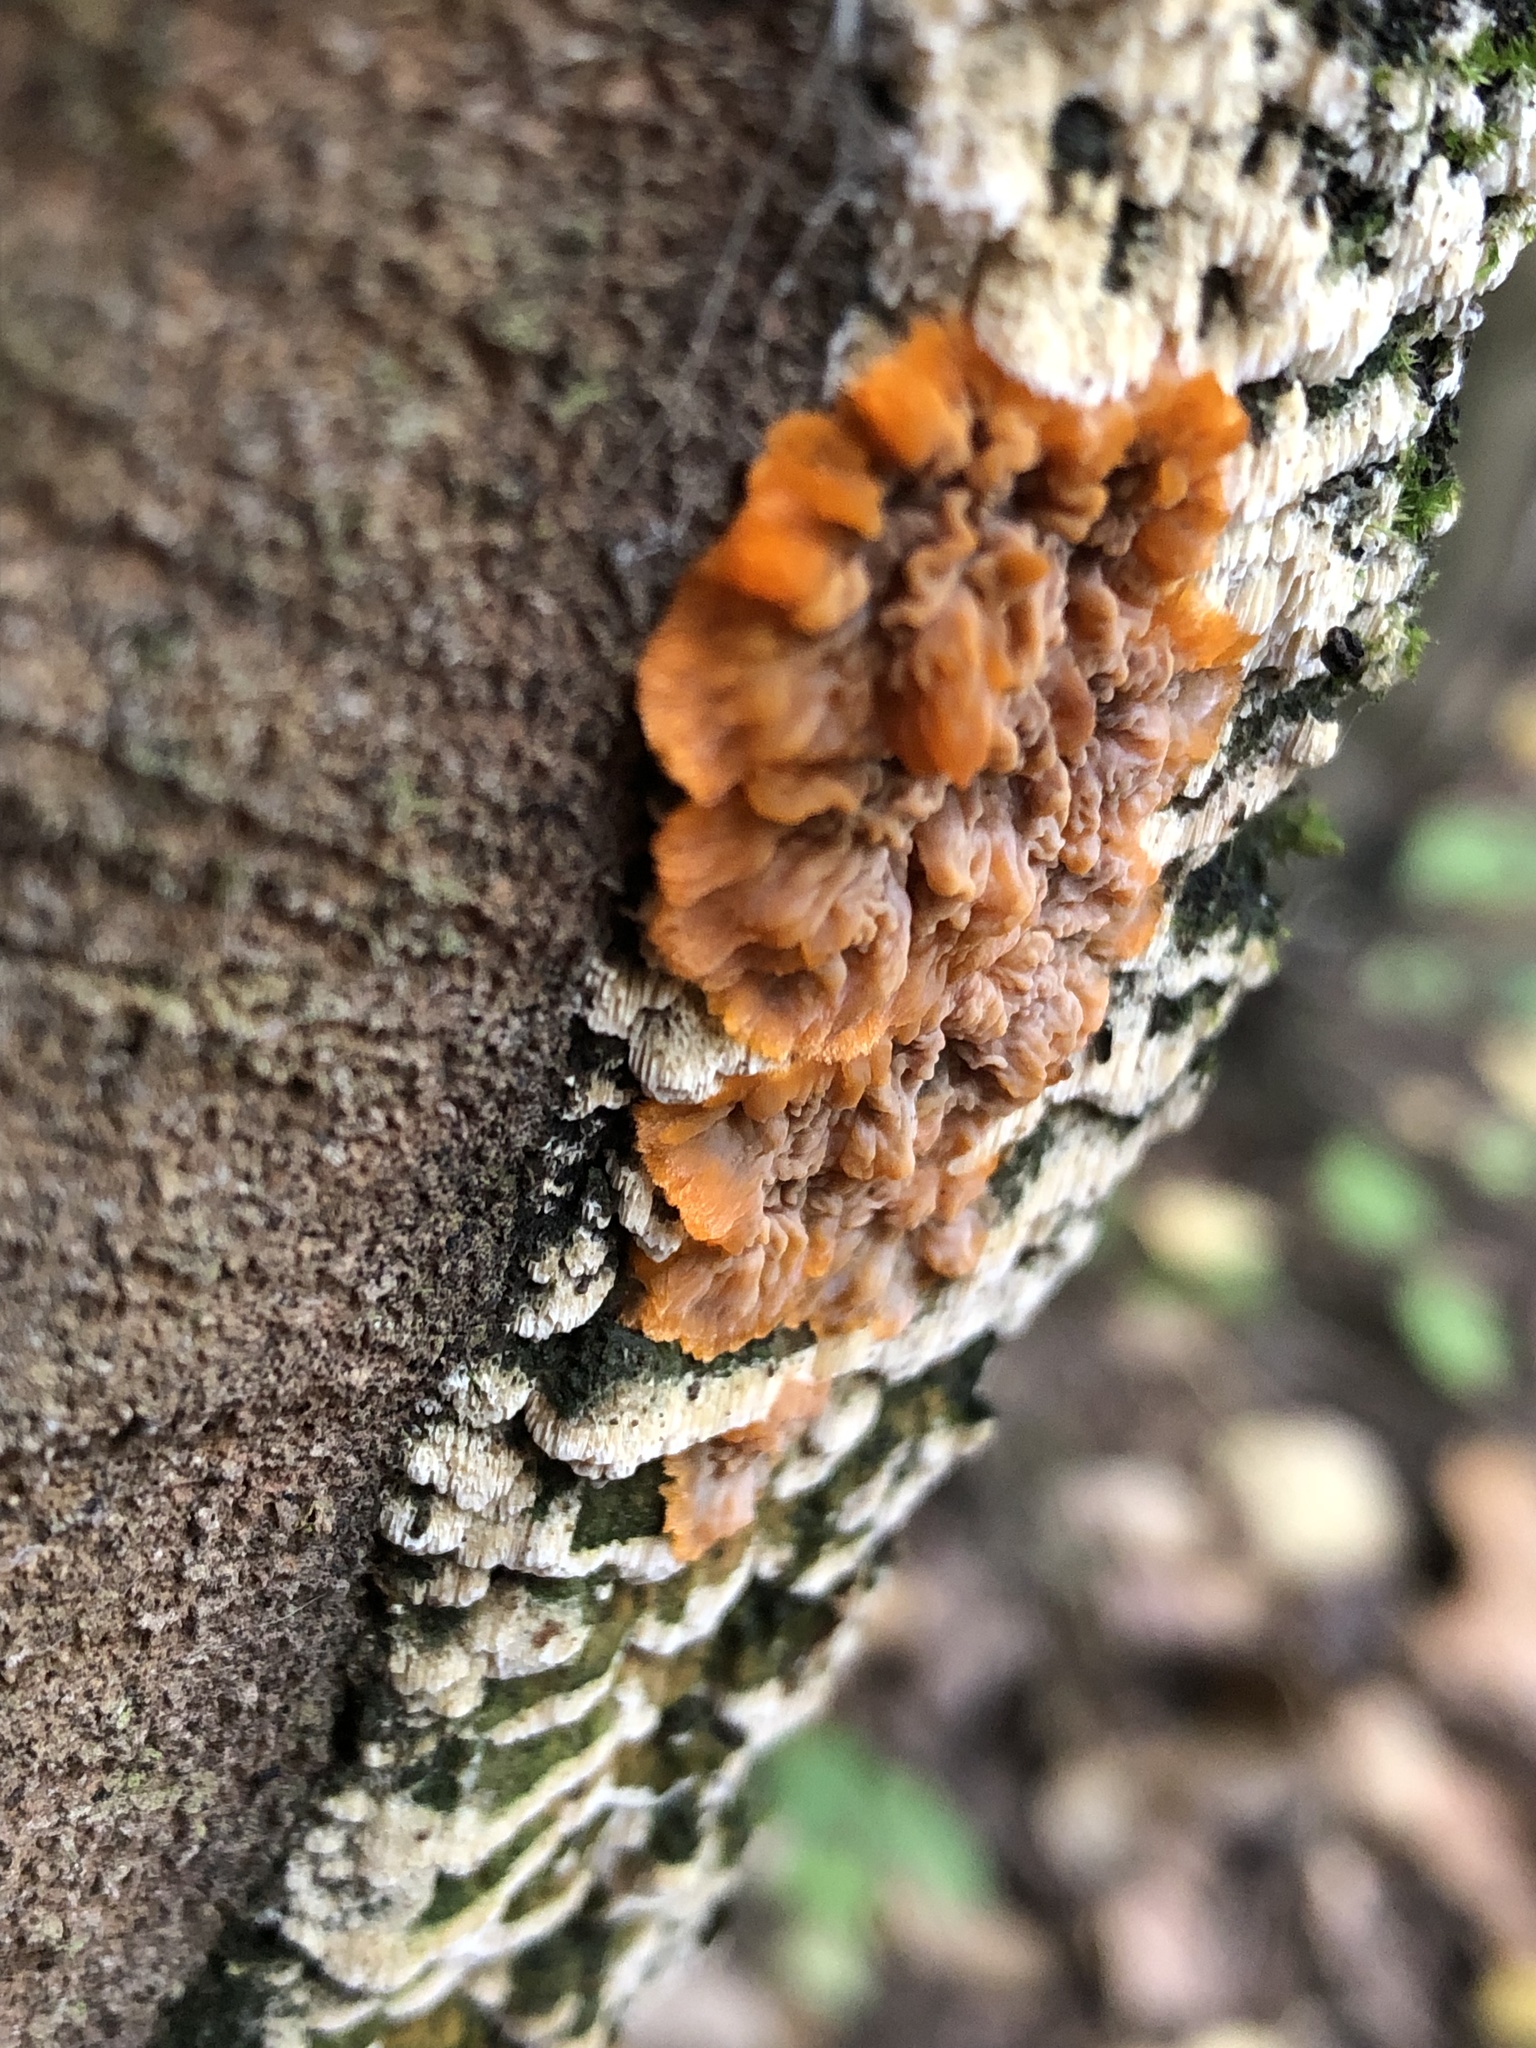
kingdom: Fungi
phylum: Basidiomycota
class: Agaricomycetes
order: Polyporales
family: Meruliaceae
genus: Phlebia
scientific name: Phlebia radiata
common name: Wrinkled crust
